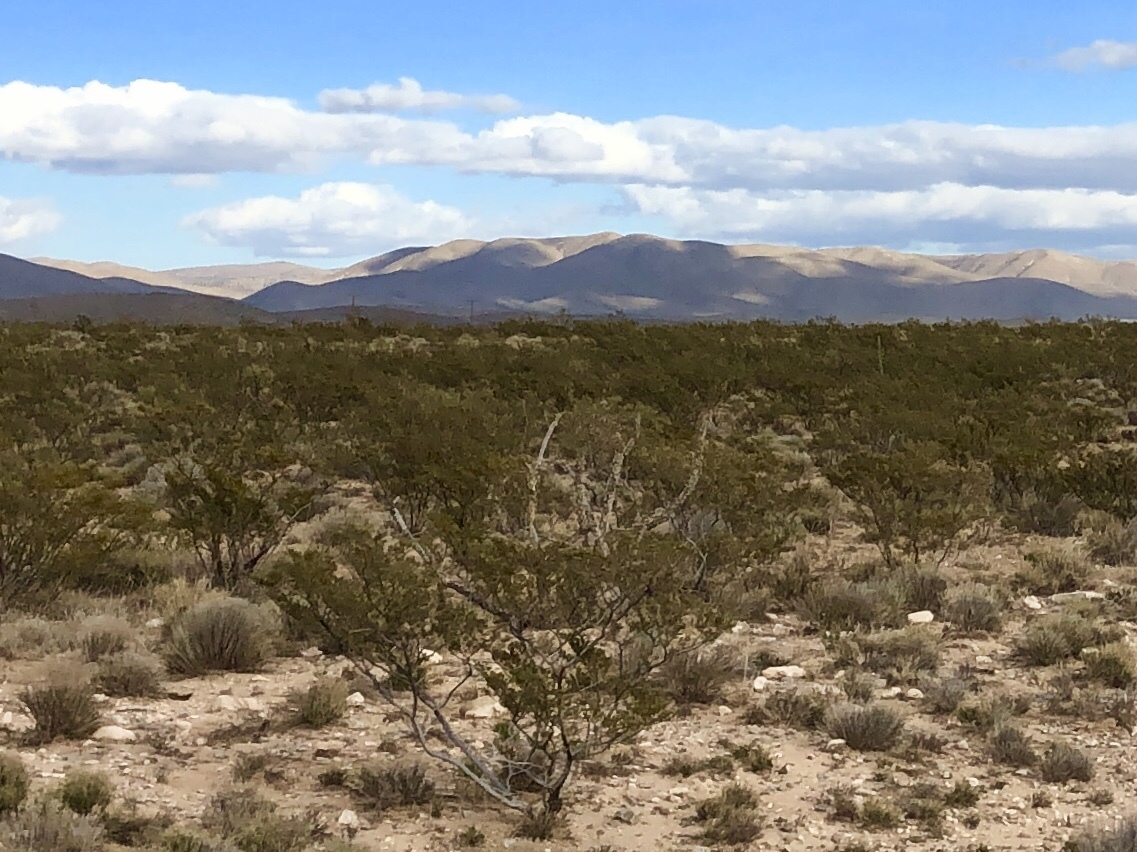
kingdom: Plantae
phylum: Tracheophyta
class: Magnoliopsida
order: Zygophyllales
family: Zygophyllaceae
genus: Larrea
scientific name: Larrea tridentata
